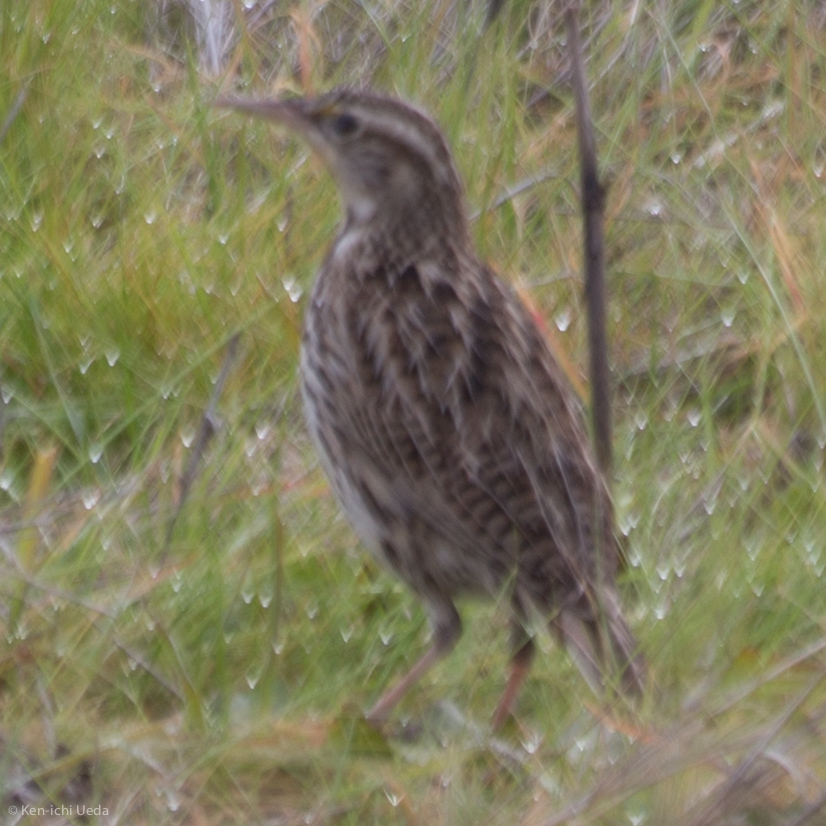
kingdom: Animalia
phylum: Chordata
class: Aves
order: Passeriformes
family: Icteridae
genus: Sturnella
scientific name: Sturnella neglecta
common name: Western meadowlark
